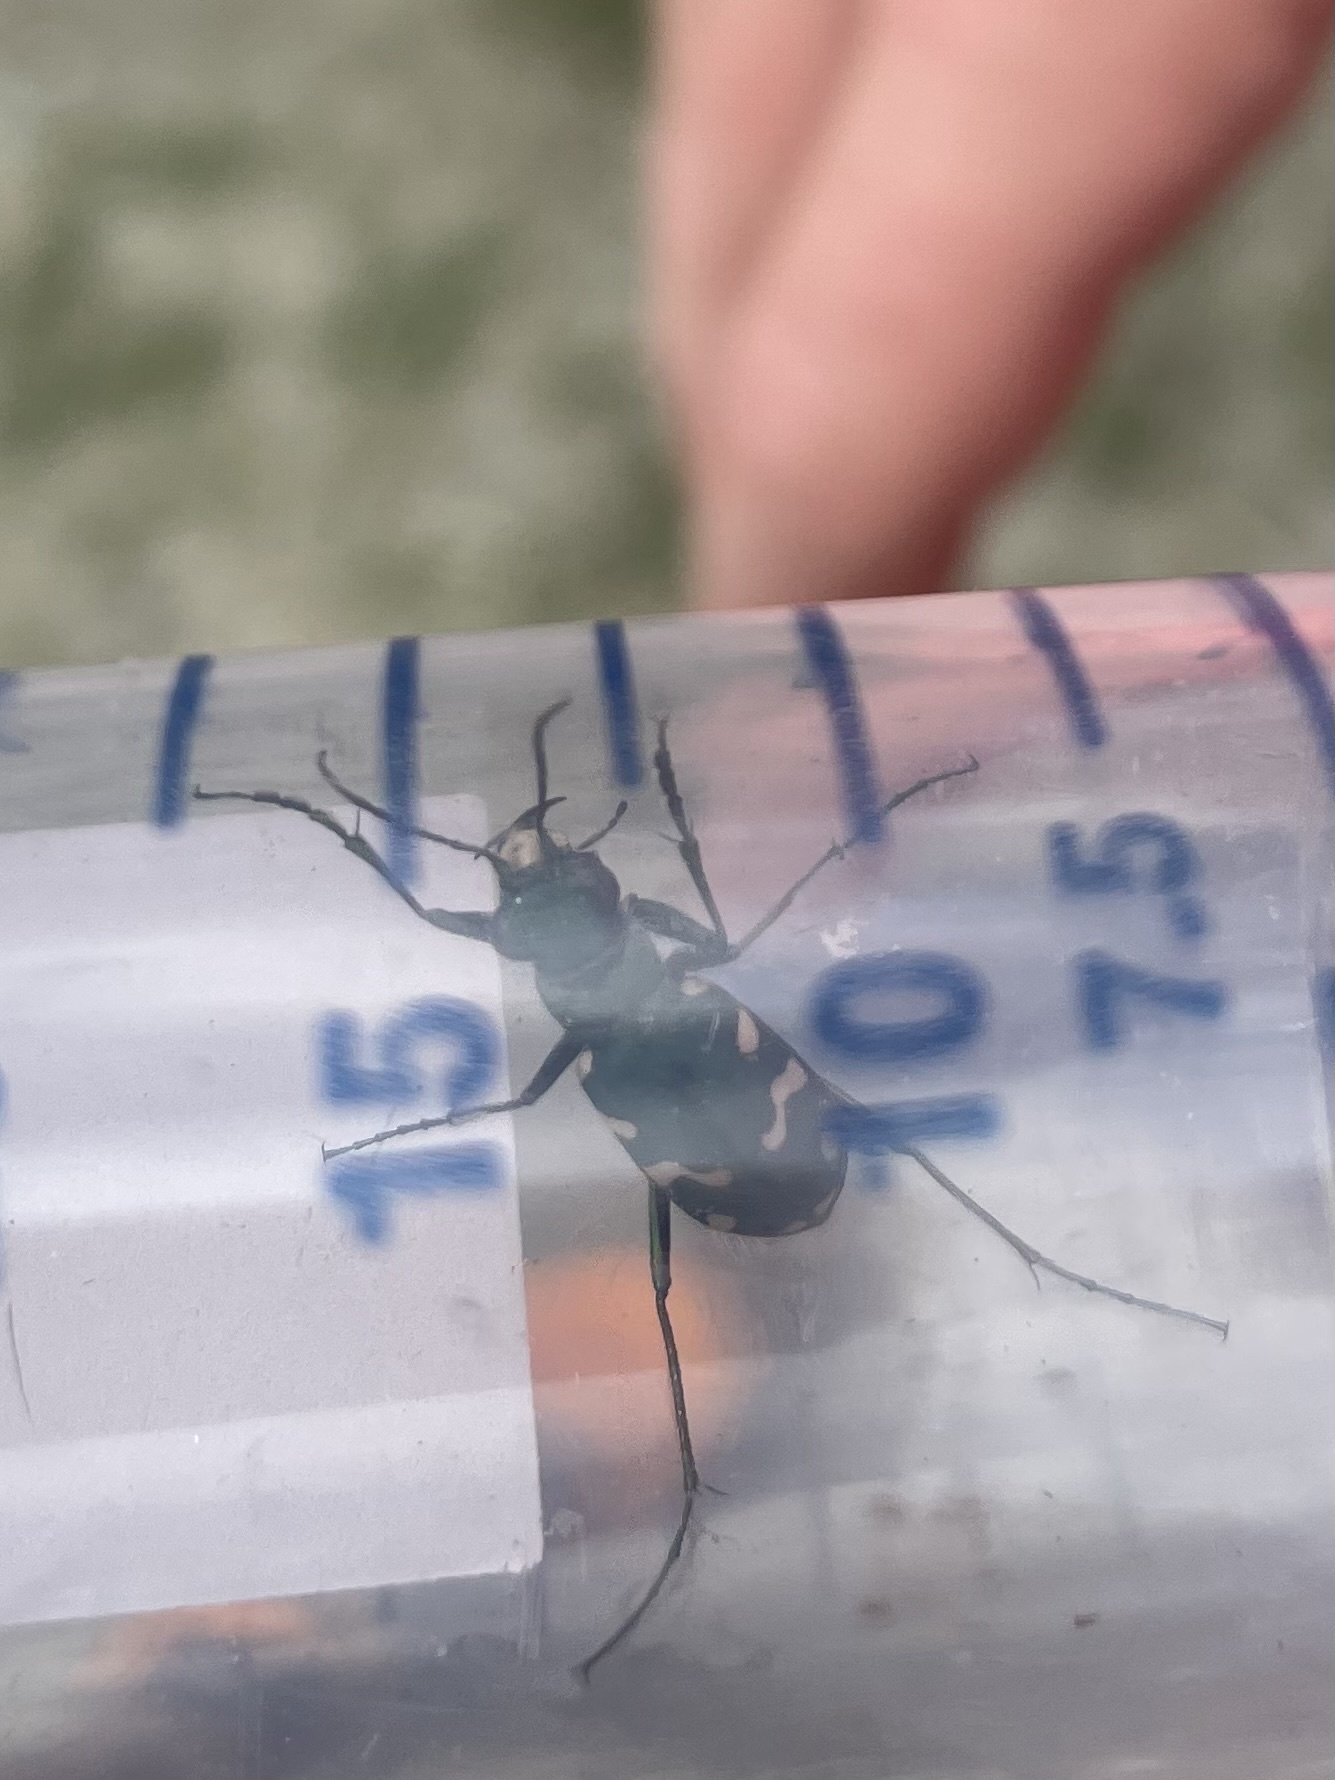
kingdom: Animalia
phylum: Arthropoda
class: Insecta
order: Coleoptera
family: Carabidae
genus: Cicindela
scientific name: Cicindela gallica
